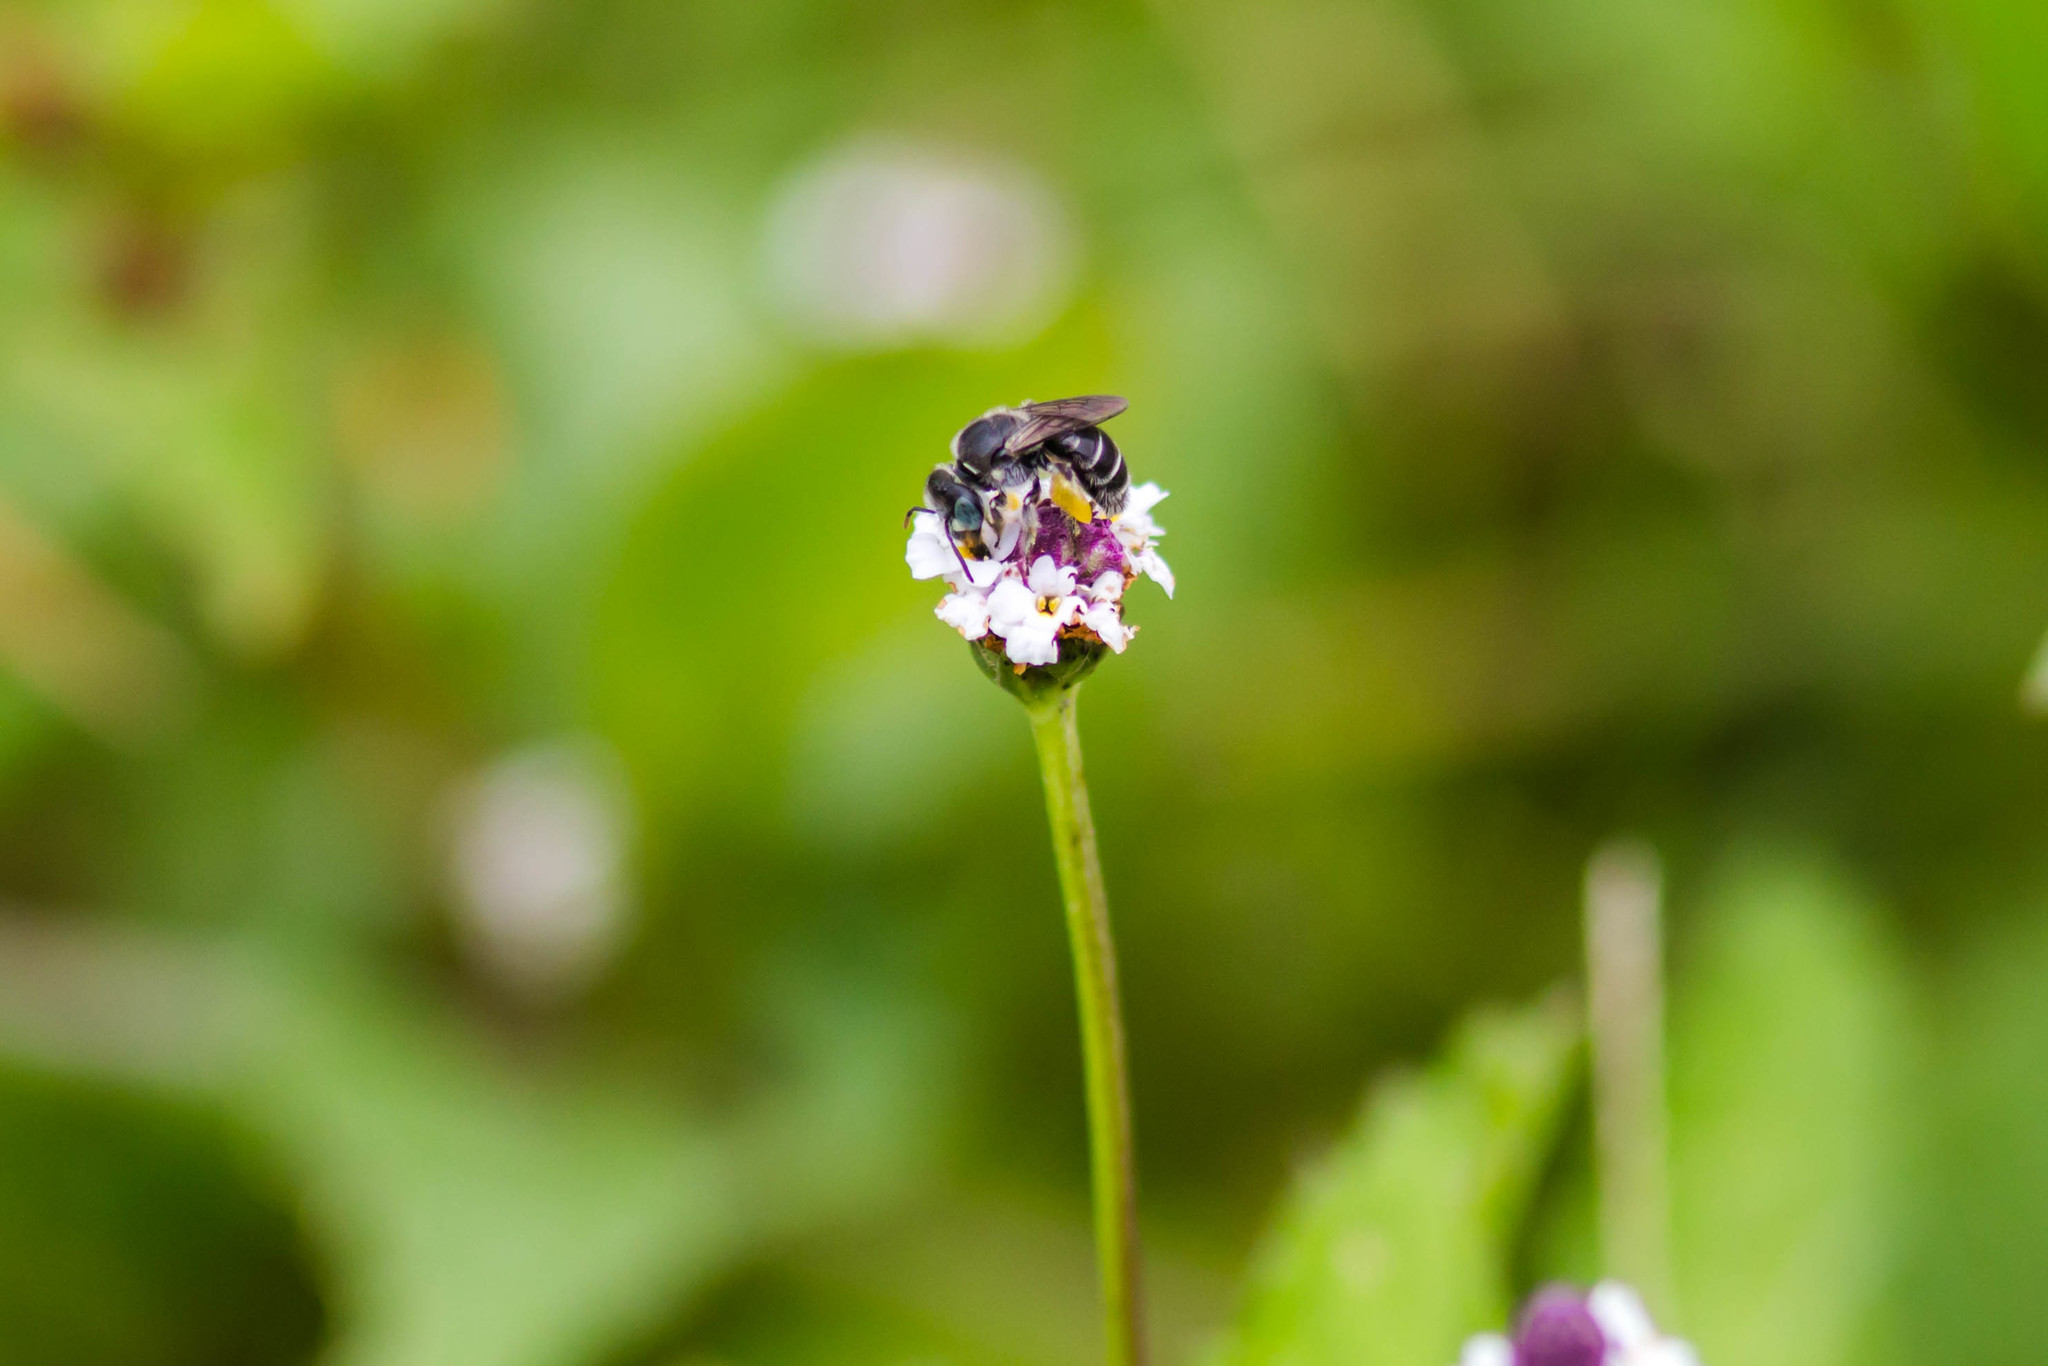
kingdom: Animalia
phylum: Arthropoda
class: Insecta
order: Hymenoptera
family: Andrenidae
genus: Calliopsis
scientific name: Calliopsis hondurasica
